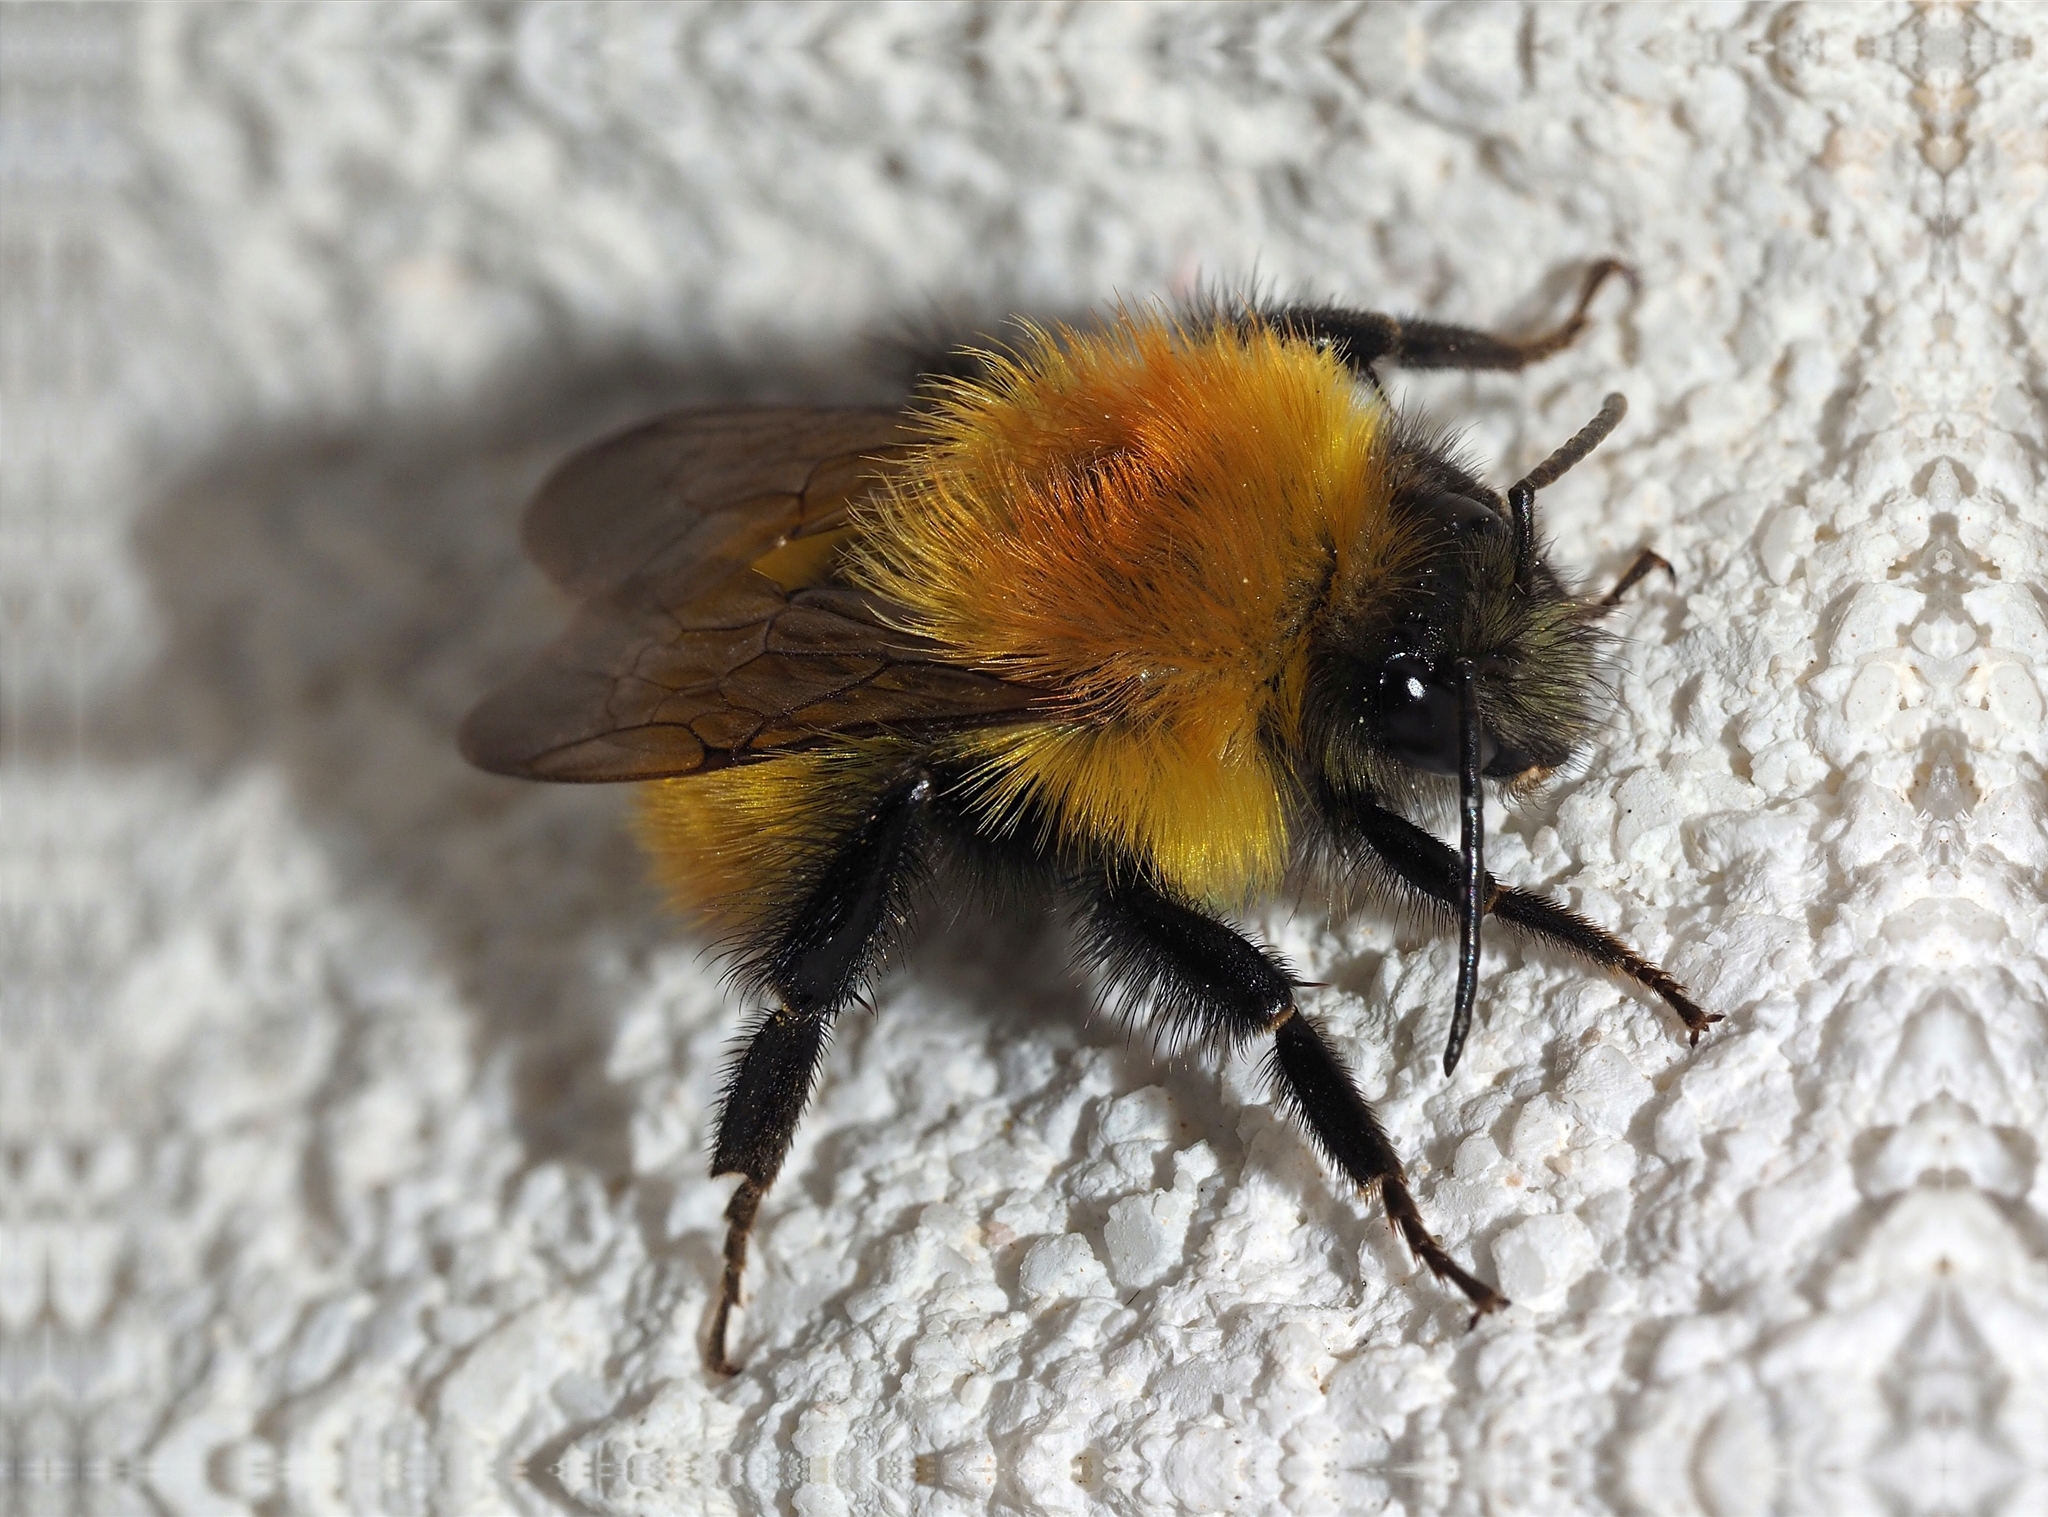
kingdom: Animalia
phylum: Arthropoda
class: Insecta
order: Hymenoptera
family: Apidae
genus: Bombus
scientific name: Bombus pascuorum
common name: Common carder bee
